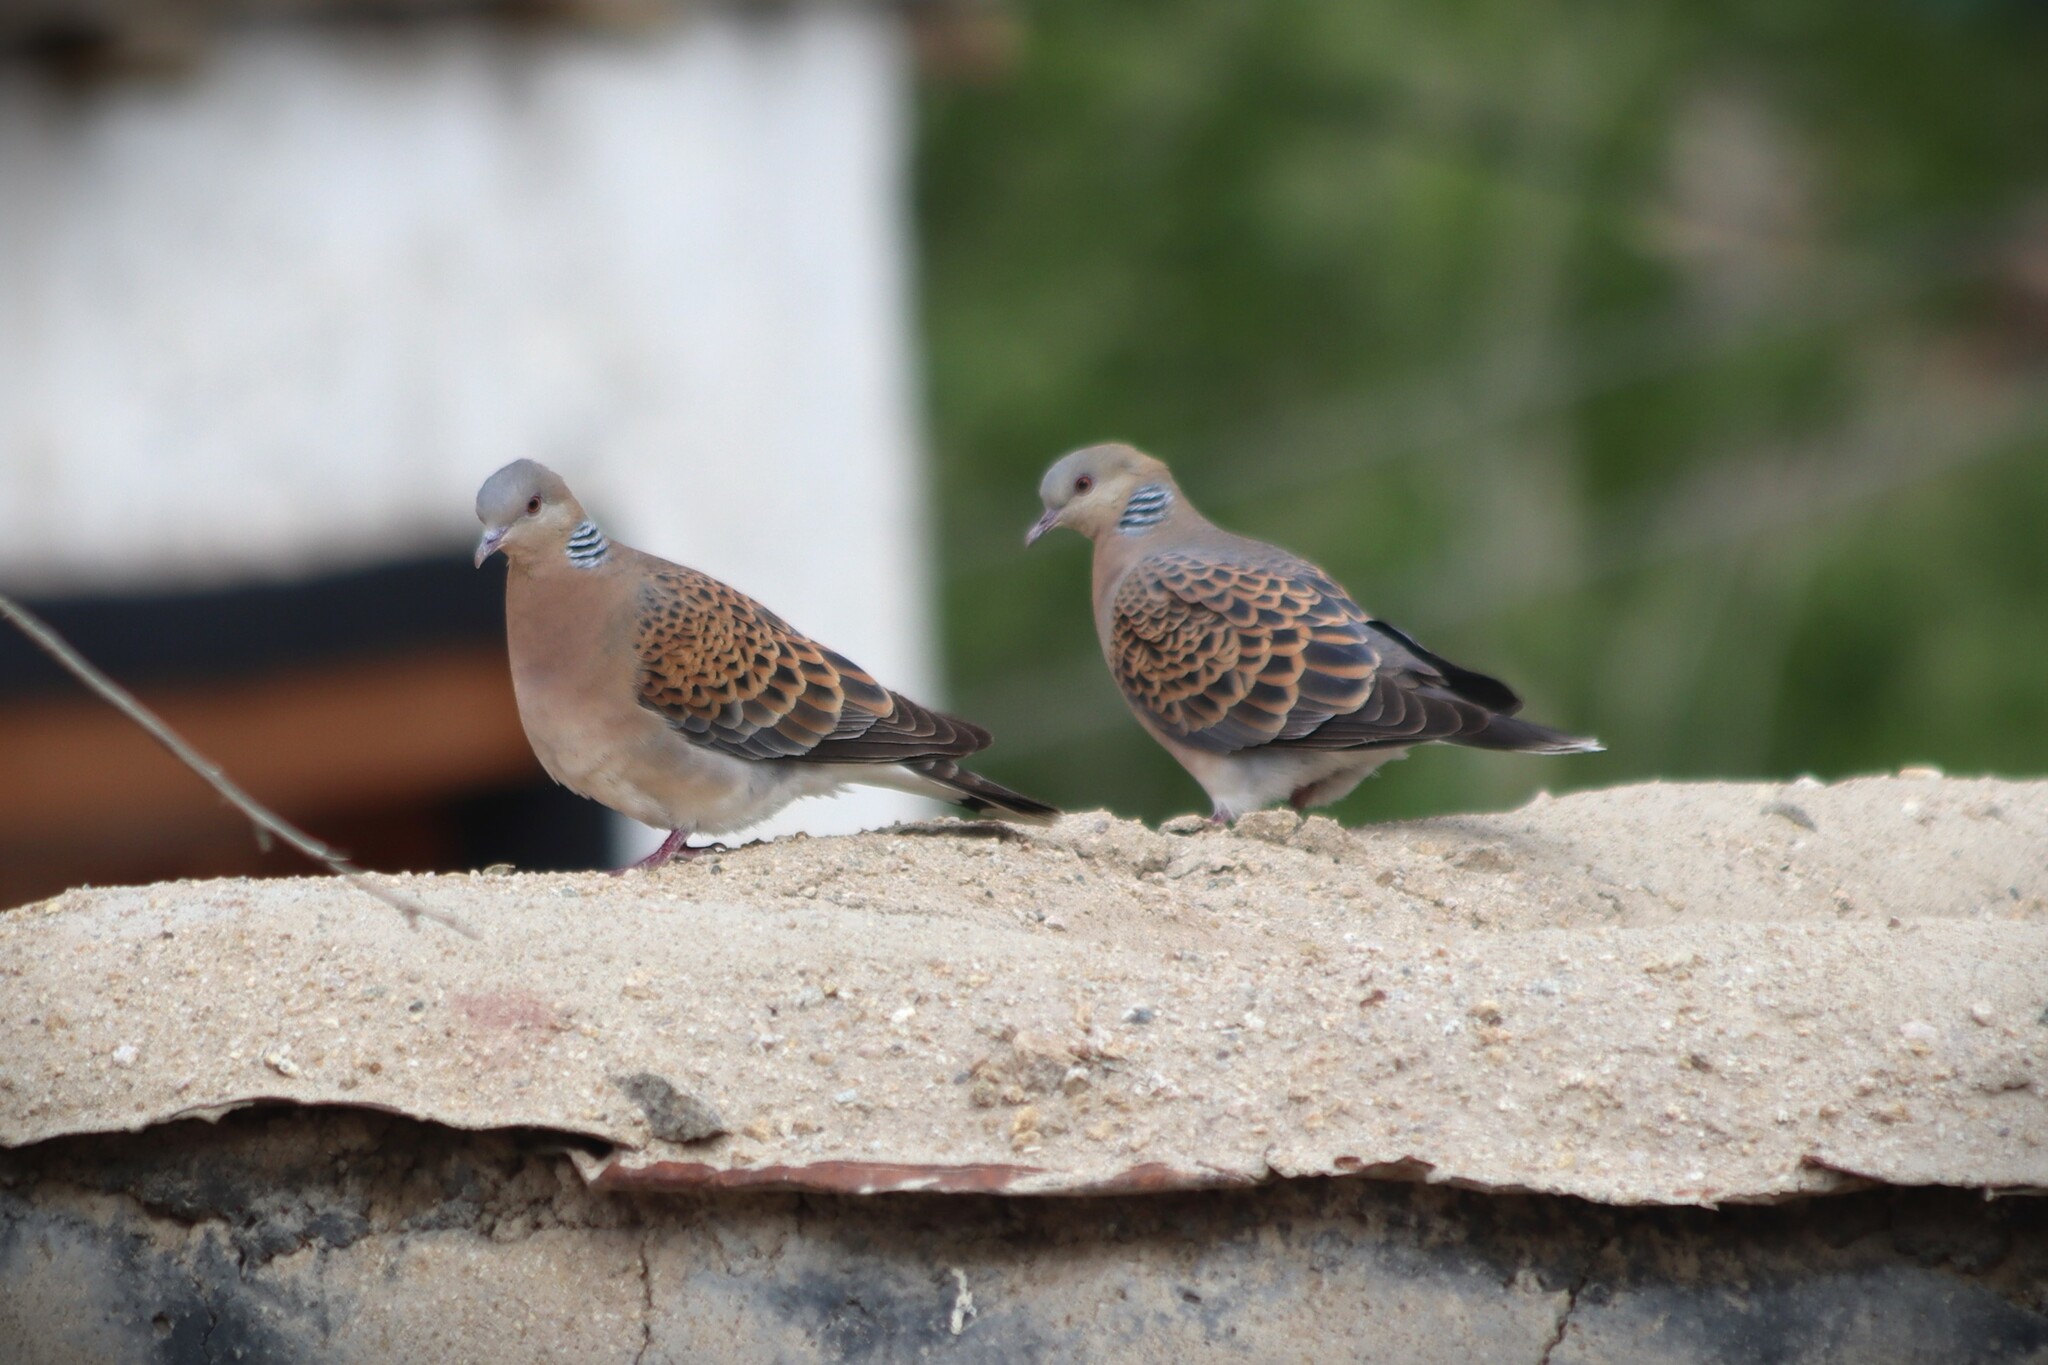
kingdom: Animalia
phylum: Chordata
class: Aves
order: Columbiformes
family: Columbidae
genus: Streptopelia
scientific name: Streptopelia orientalis
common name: Oriental turtle dove
